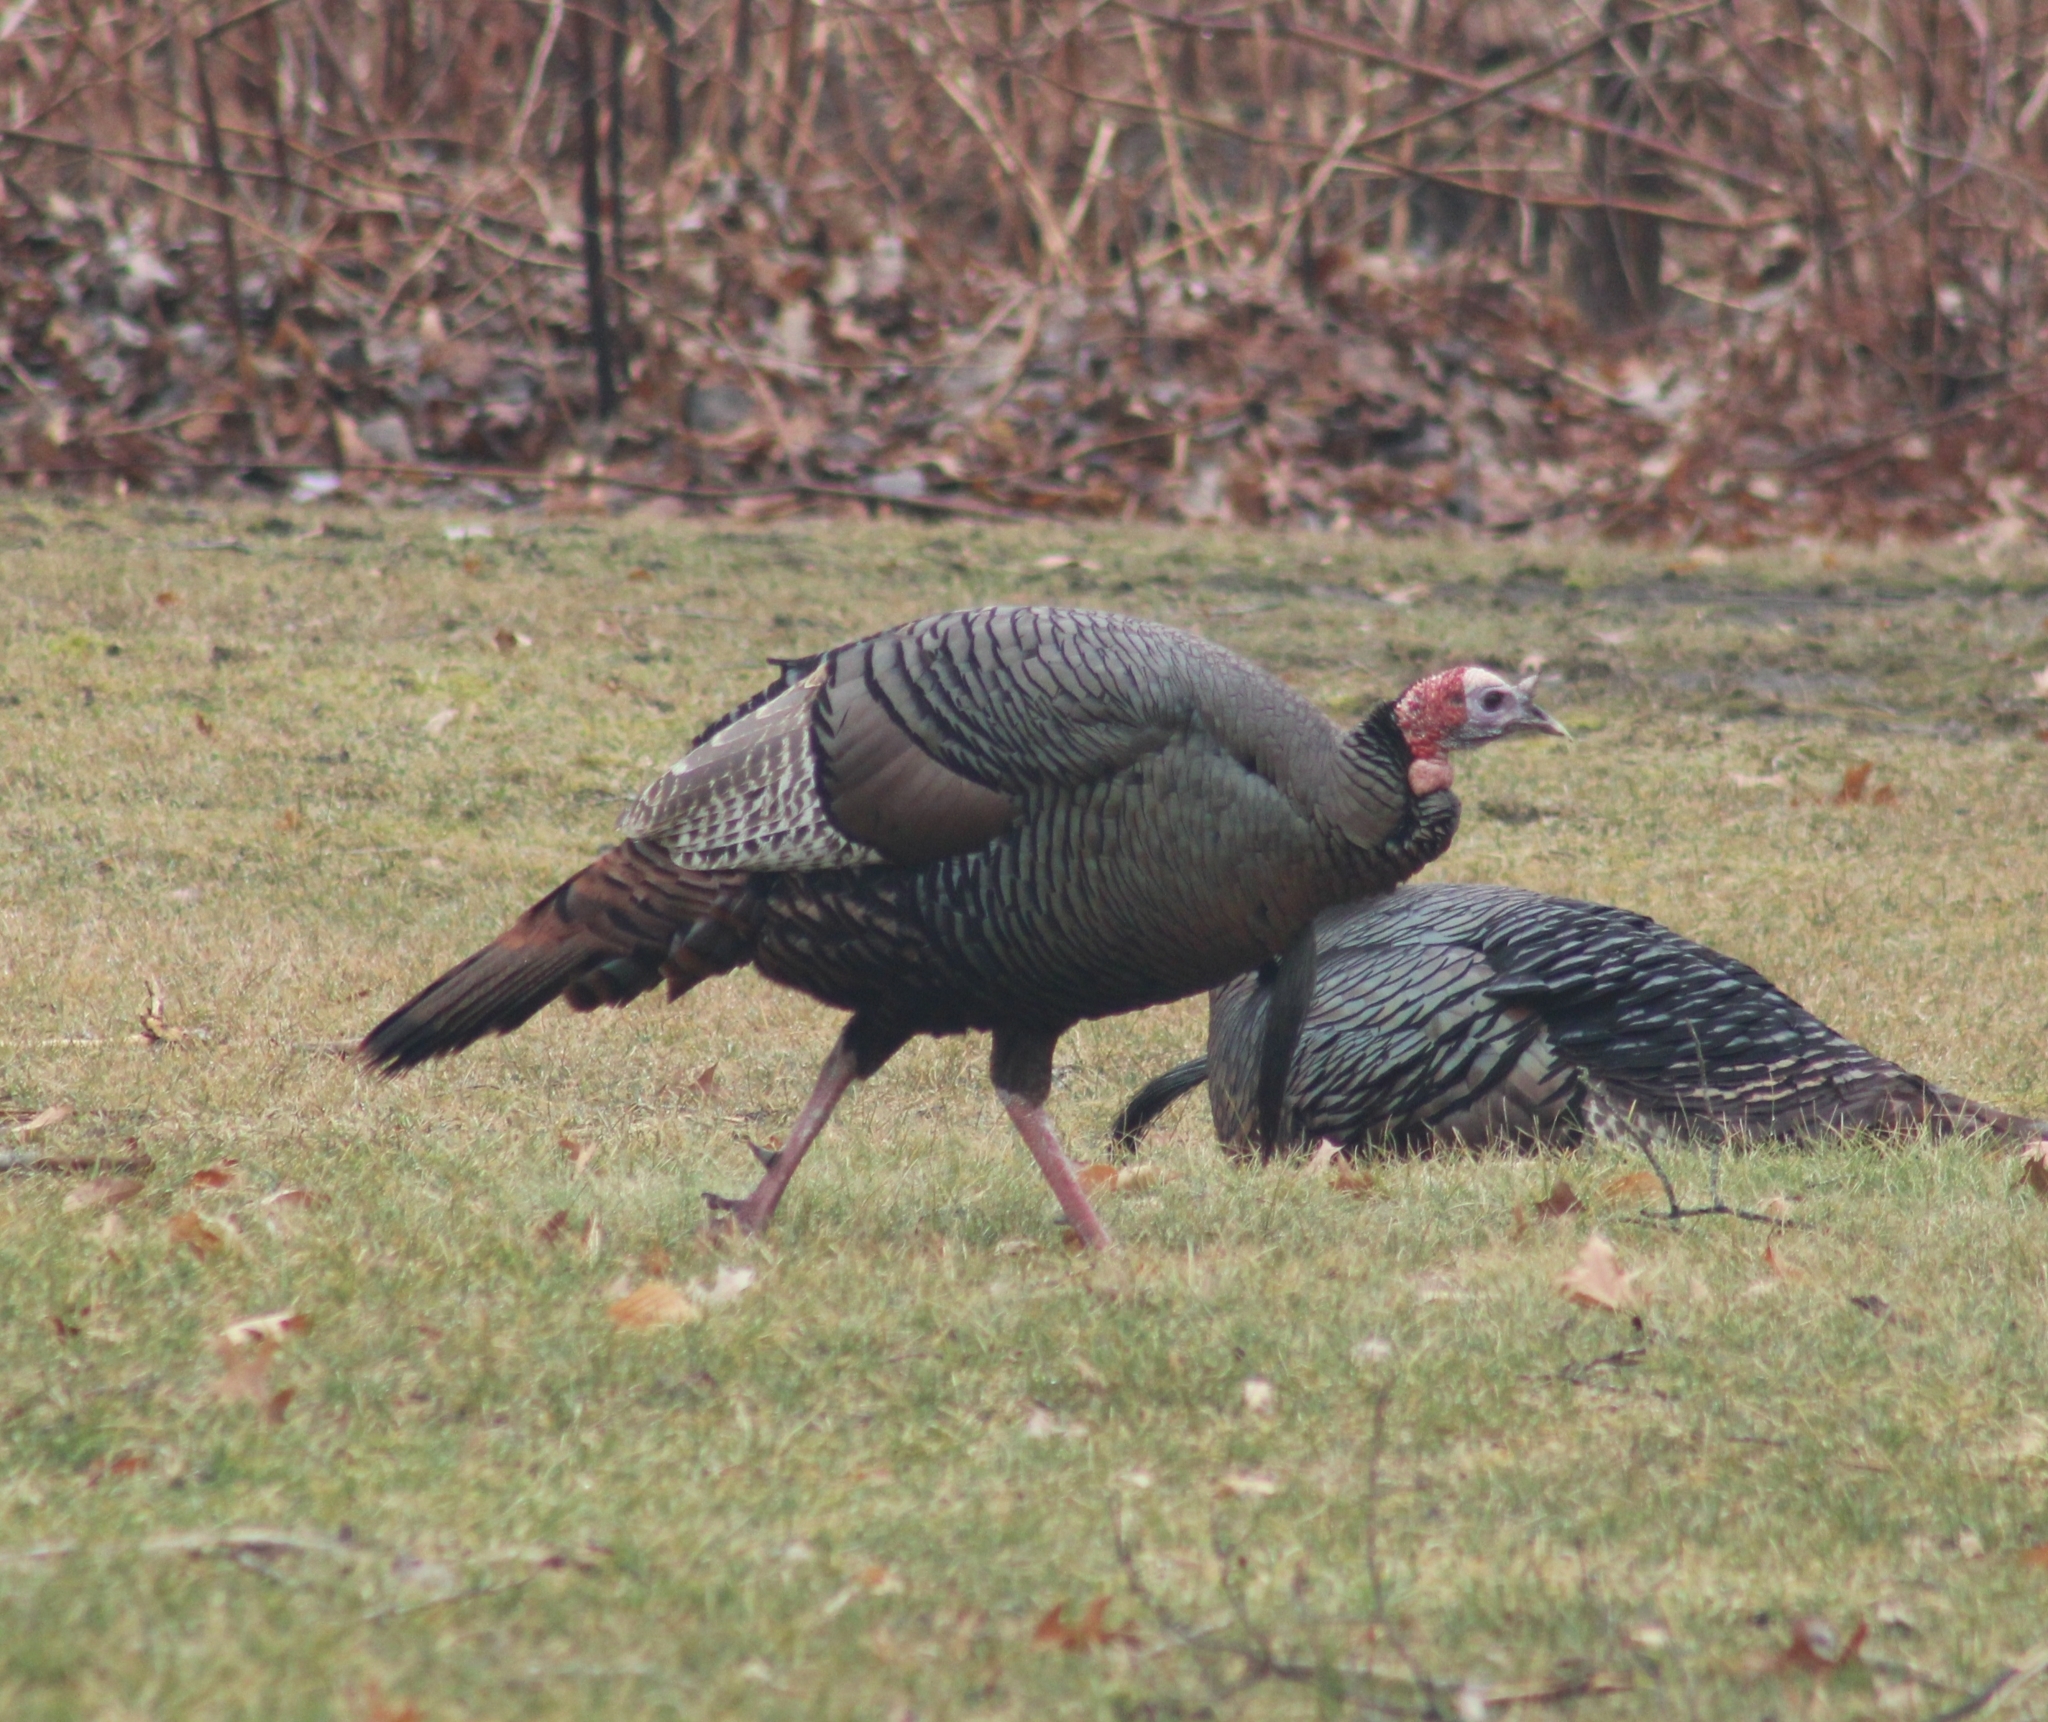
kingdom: Animalia
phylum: Chordata
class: Aves
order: Galliformes
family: Phasianidae
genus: Meleagris
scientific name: Meleagris gallopavo
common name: Wild turkey
